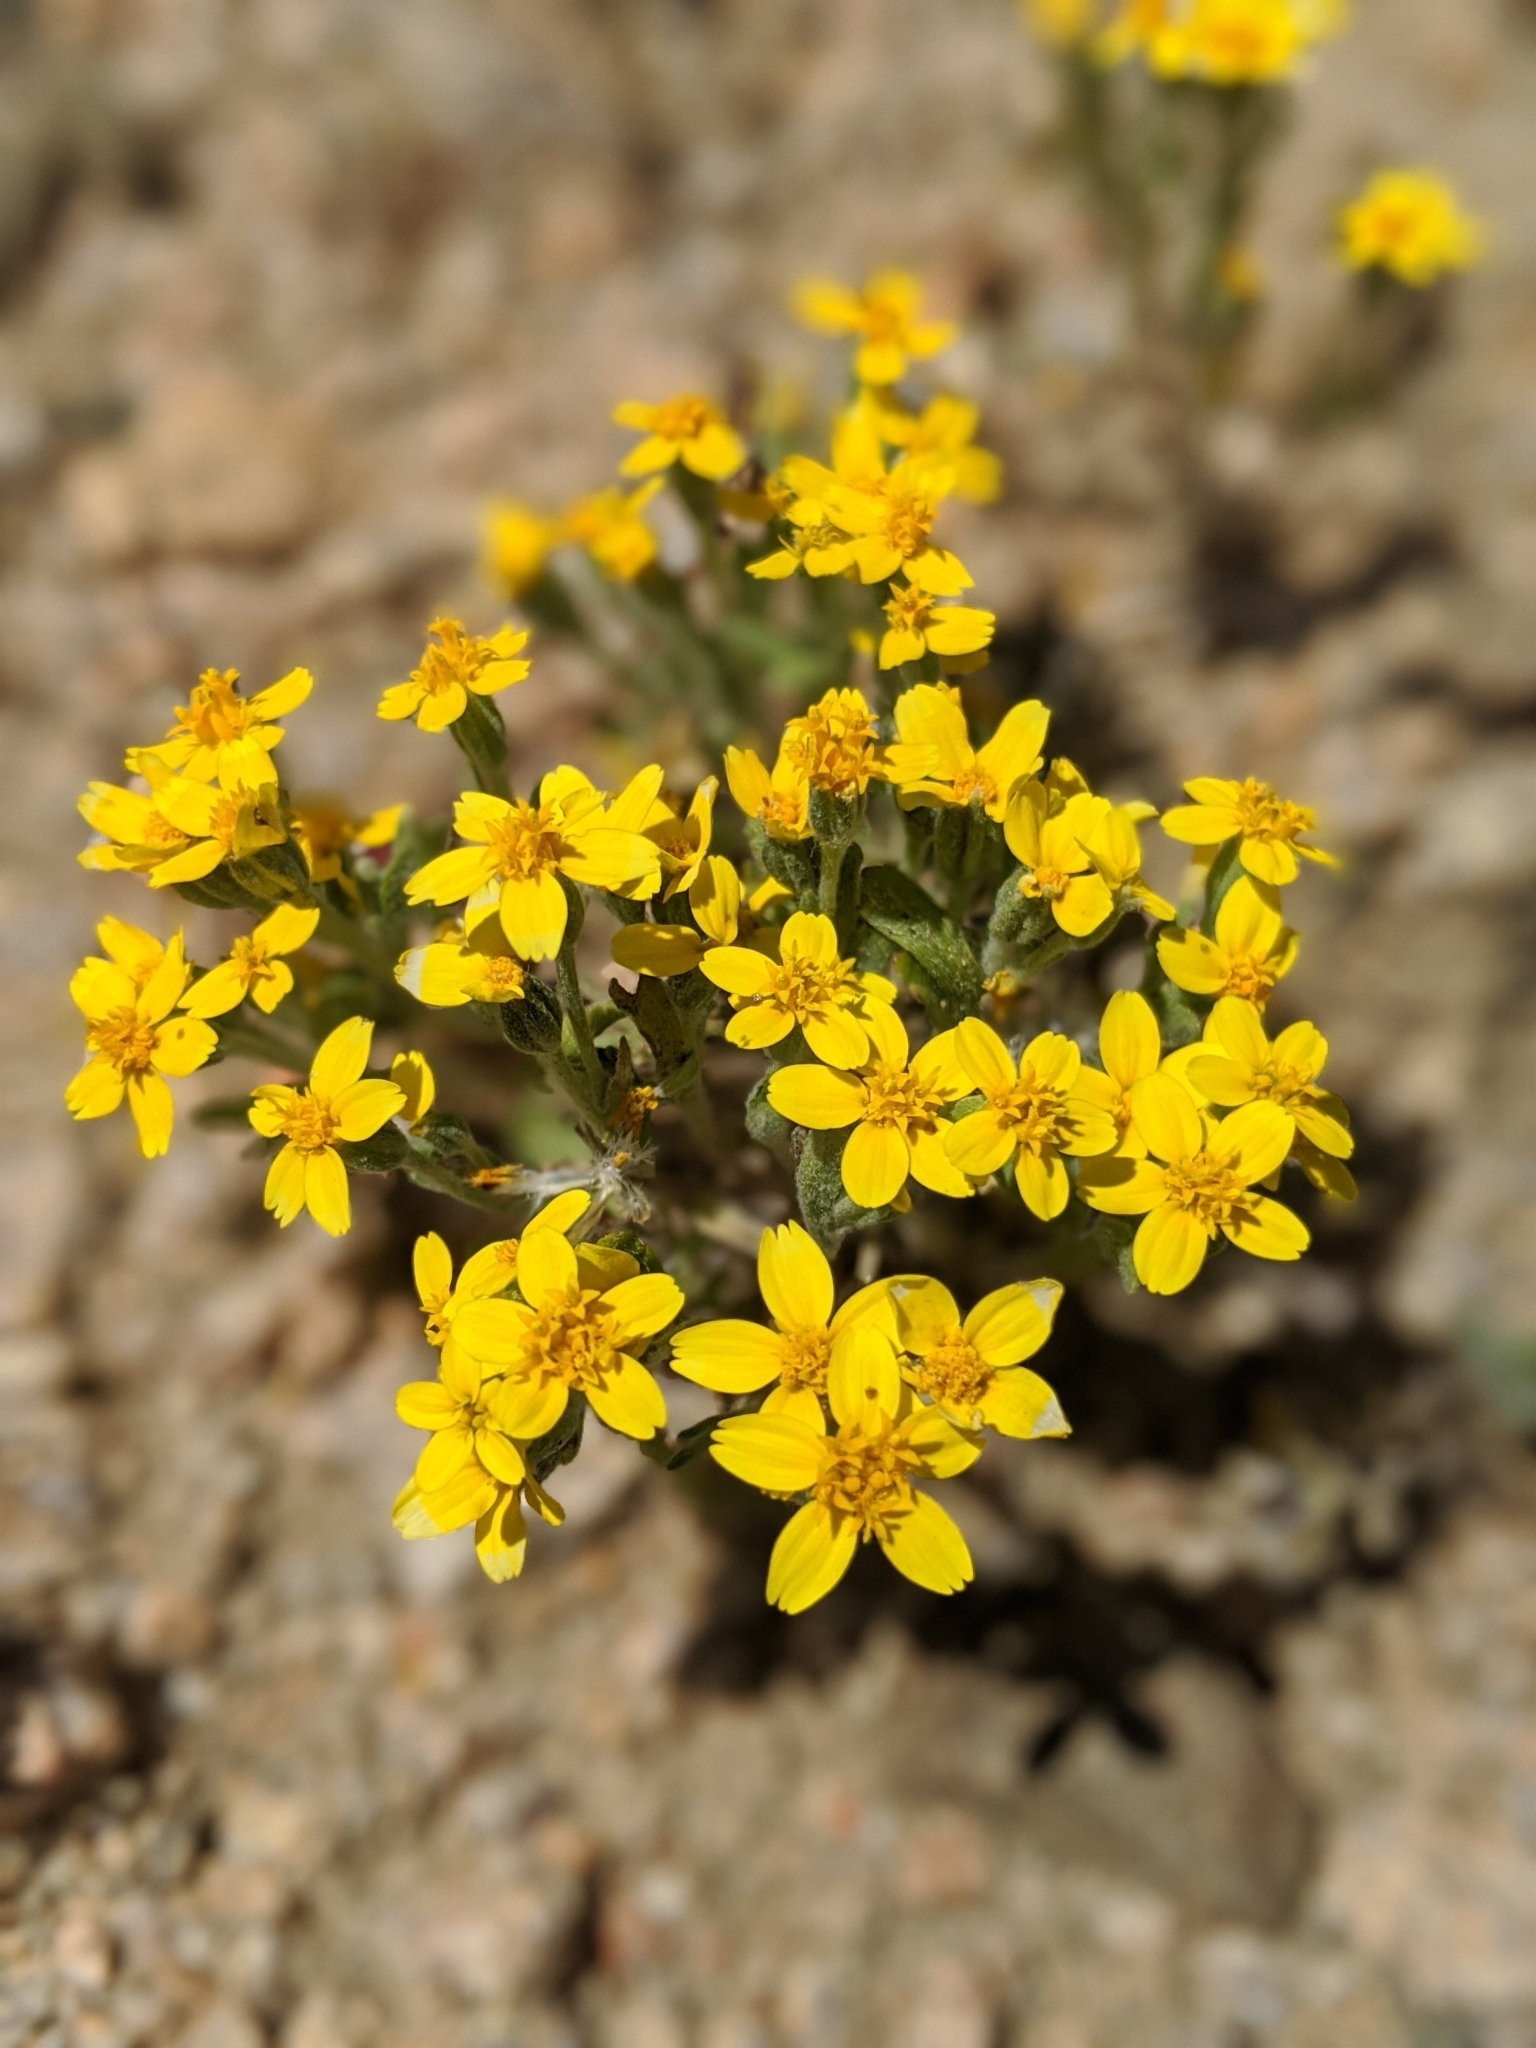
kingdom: Plantae
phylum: Tracheophyta
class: Magnoliopsida
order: Asterales
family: Asteraceae
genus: Syntrichopappus
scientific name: Syntrichopappus fremontii
